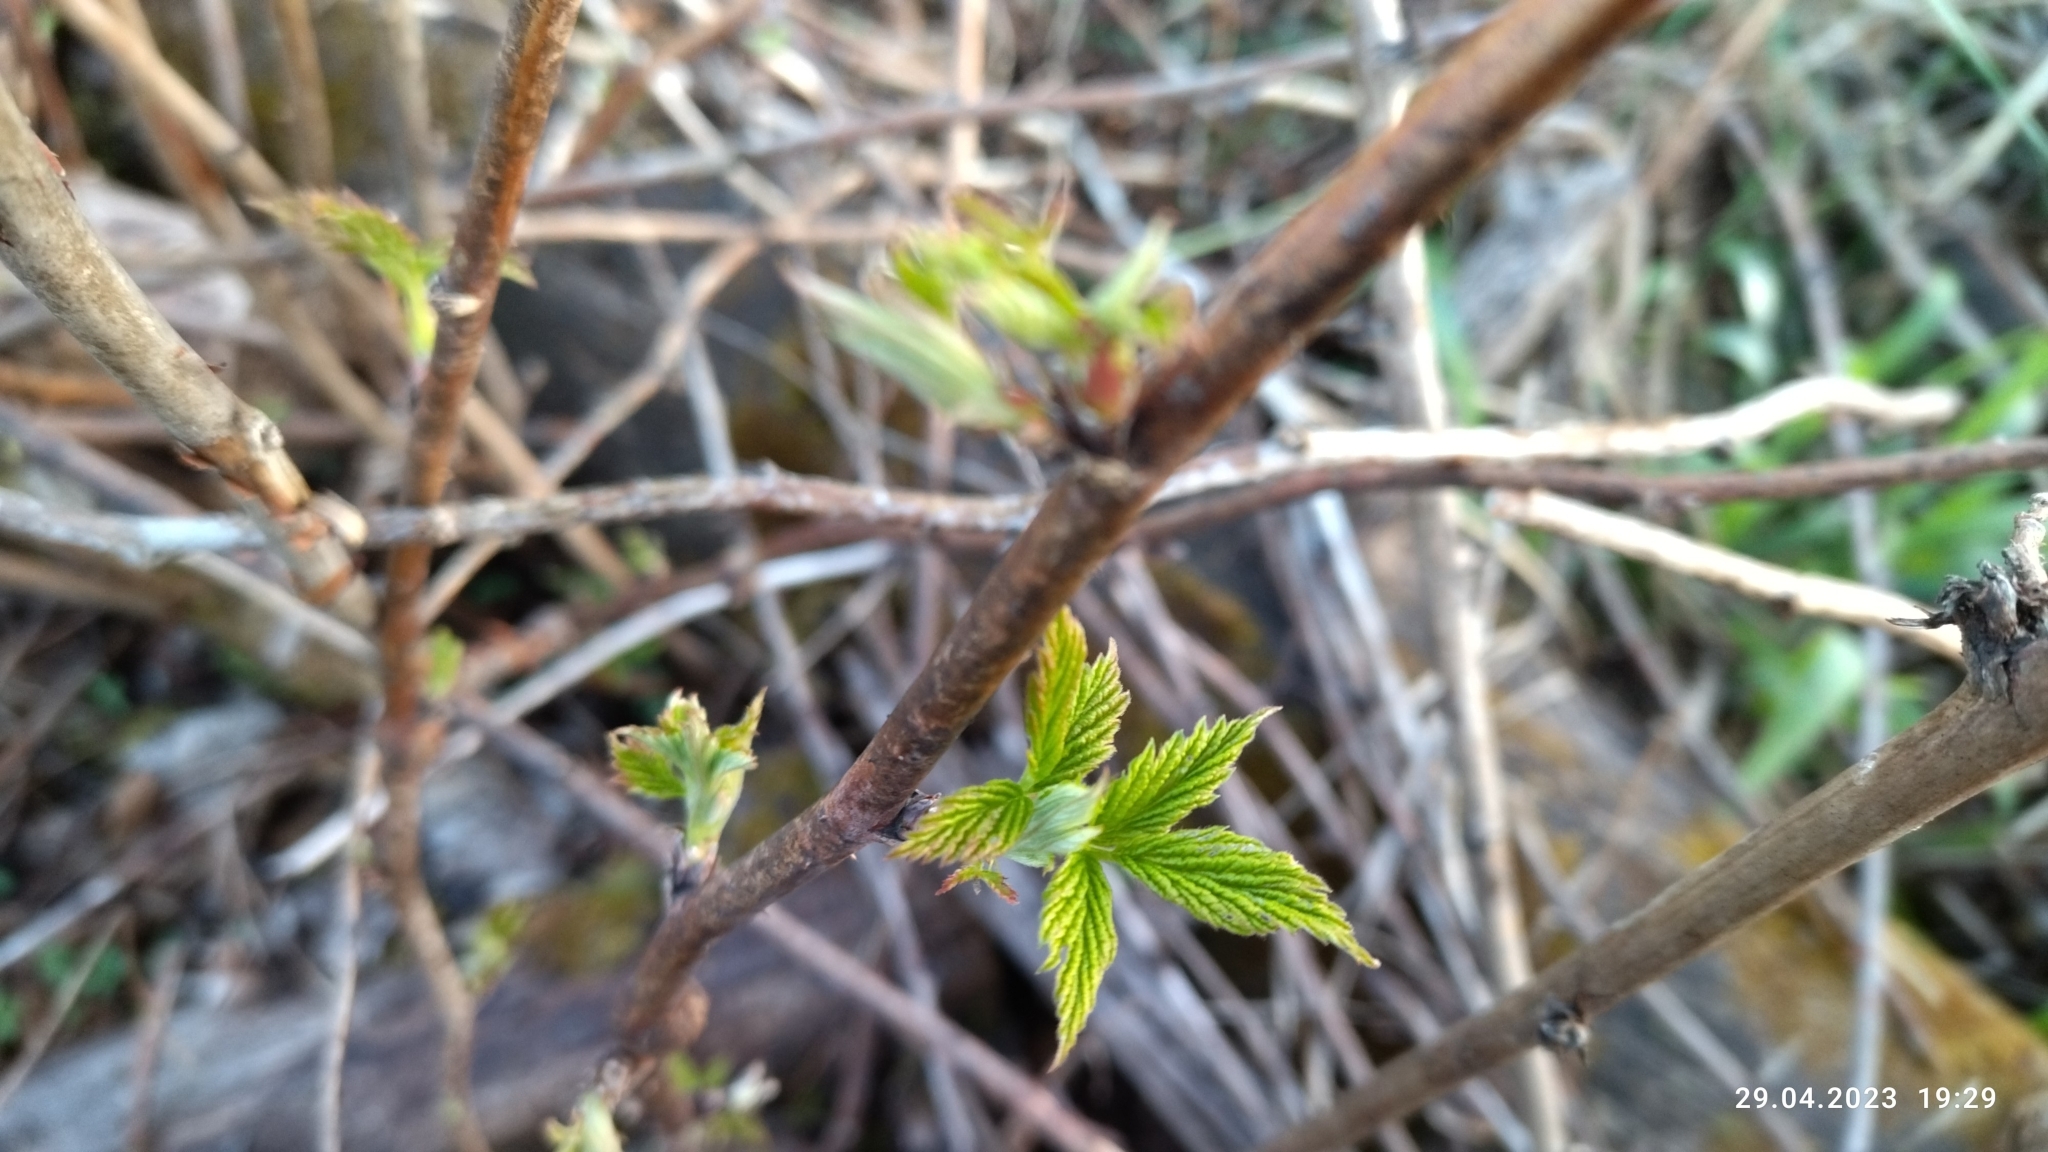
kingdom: Plantae
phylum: Tracheophyta
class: Magnoliopsida
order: Rosales
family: Rosaceae
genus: Rubus
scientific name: Rubus idaeus
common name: Raspberry
